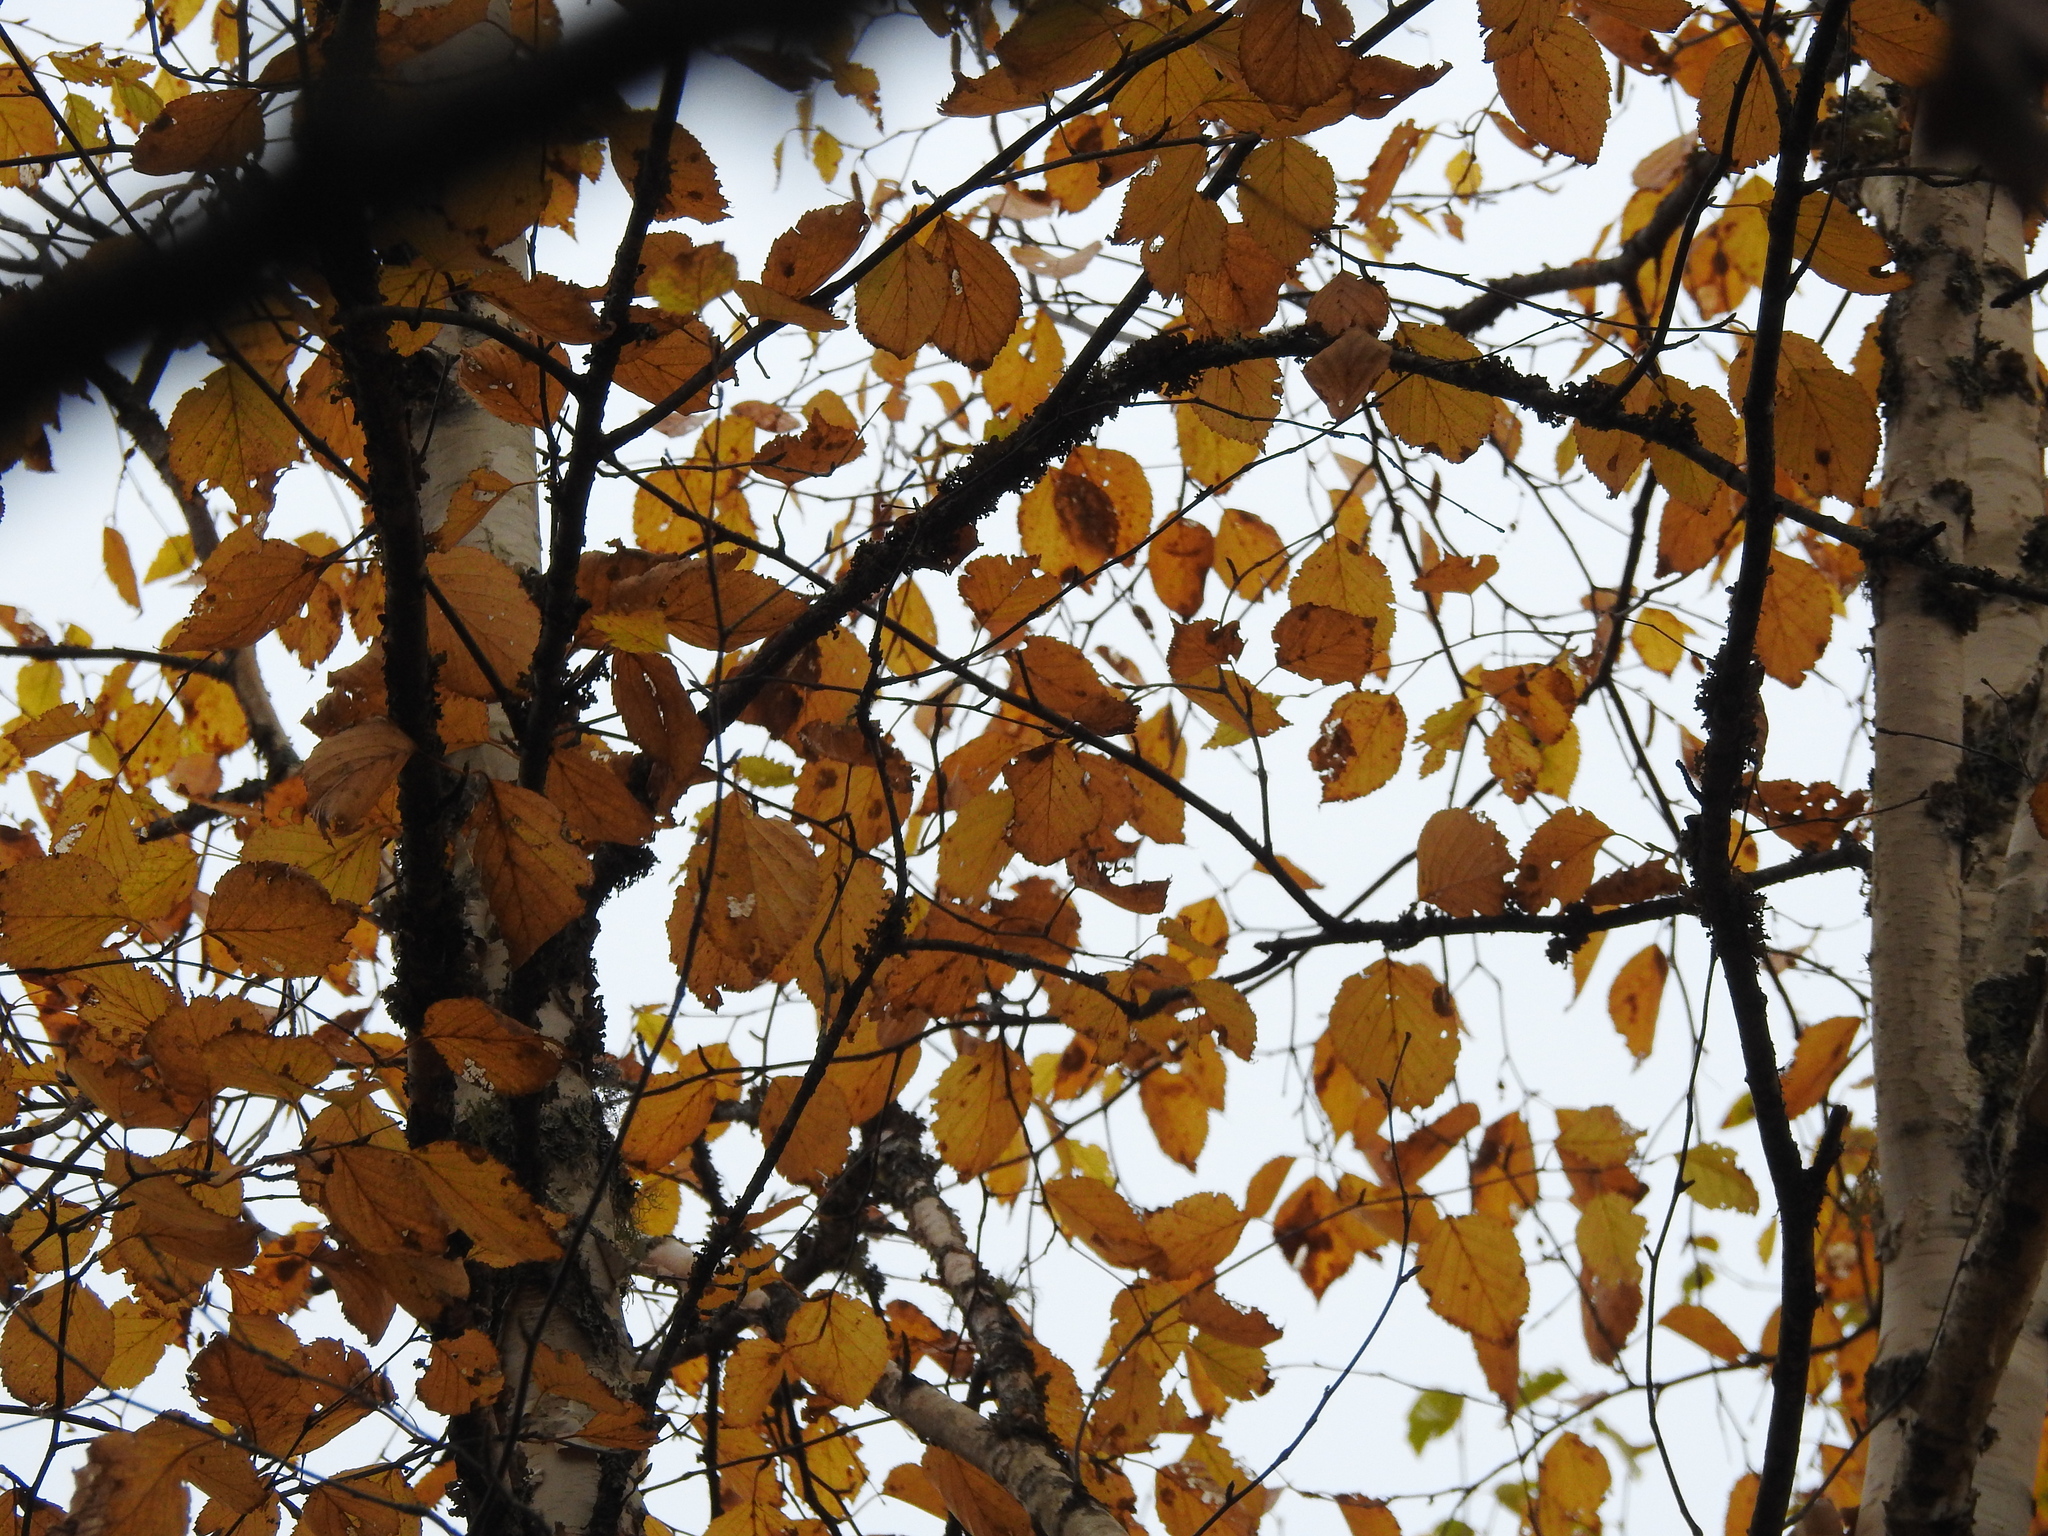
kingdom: Plantae
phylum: Tracheophyta
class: Magnoliopsida
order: Fagales
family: Betulaceae
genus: Betula
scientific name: Betula papyrifera
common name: Paper birch
